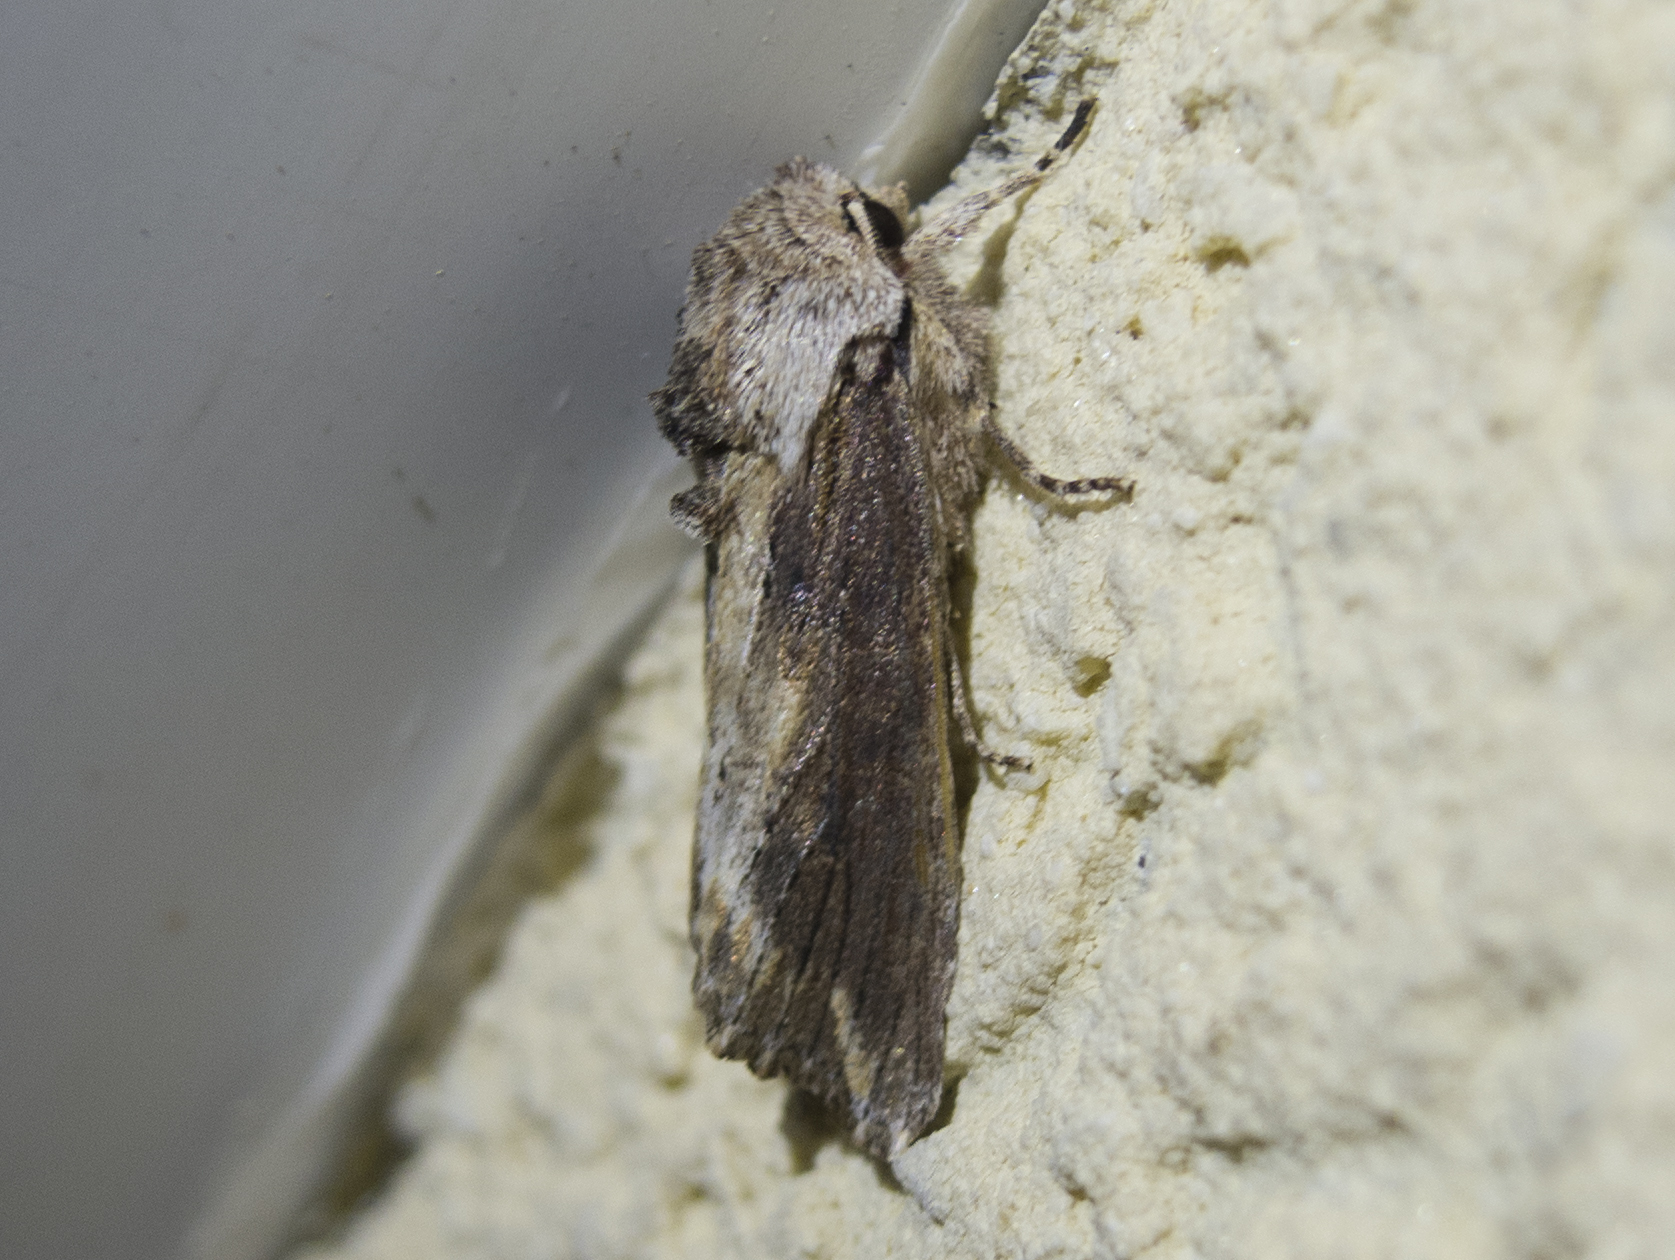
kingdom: Animalia
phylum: Arthropoda
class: Insecta
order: Lepidoptera
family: Noctuidae
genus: Egira
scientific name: Egira
